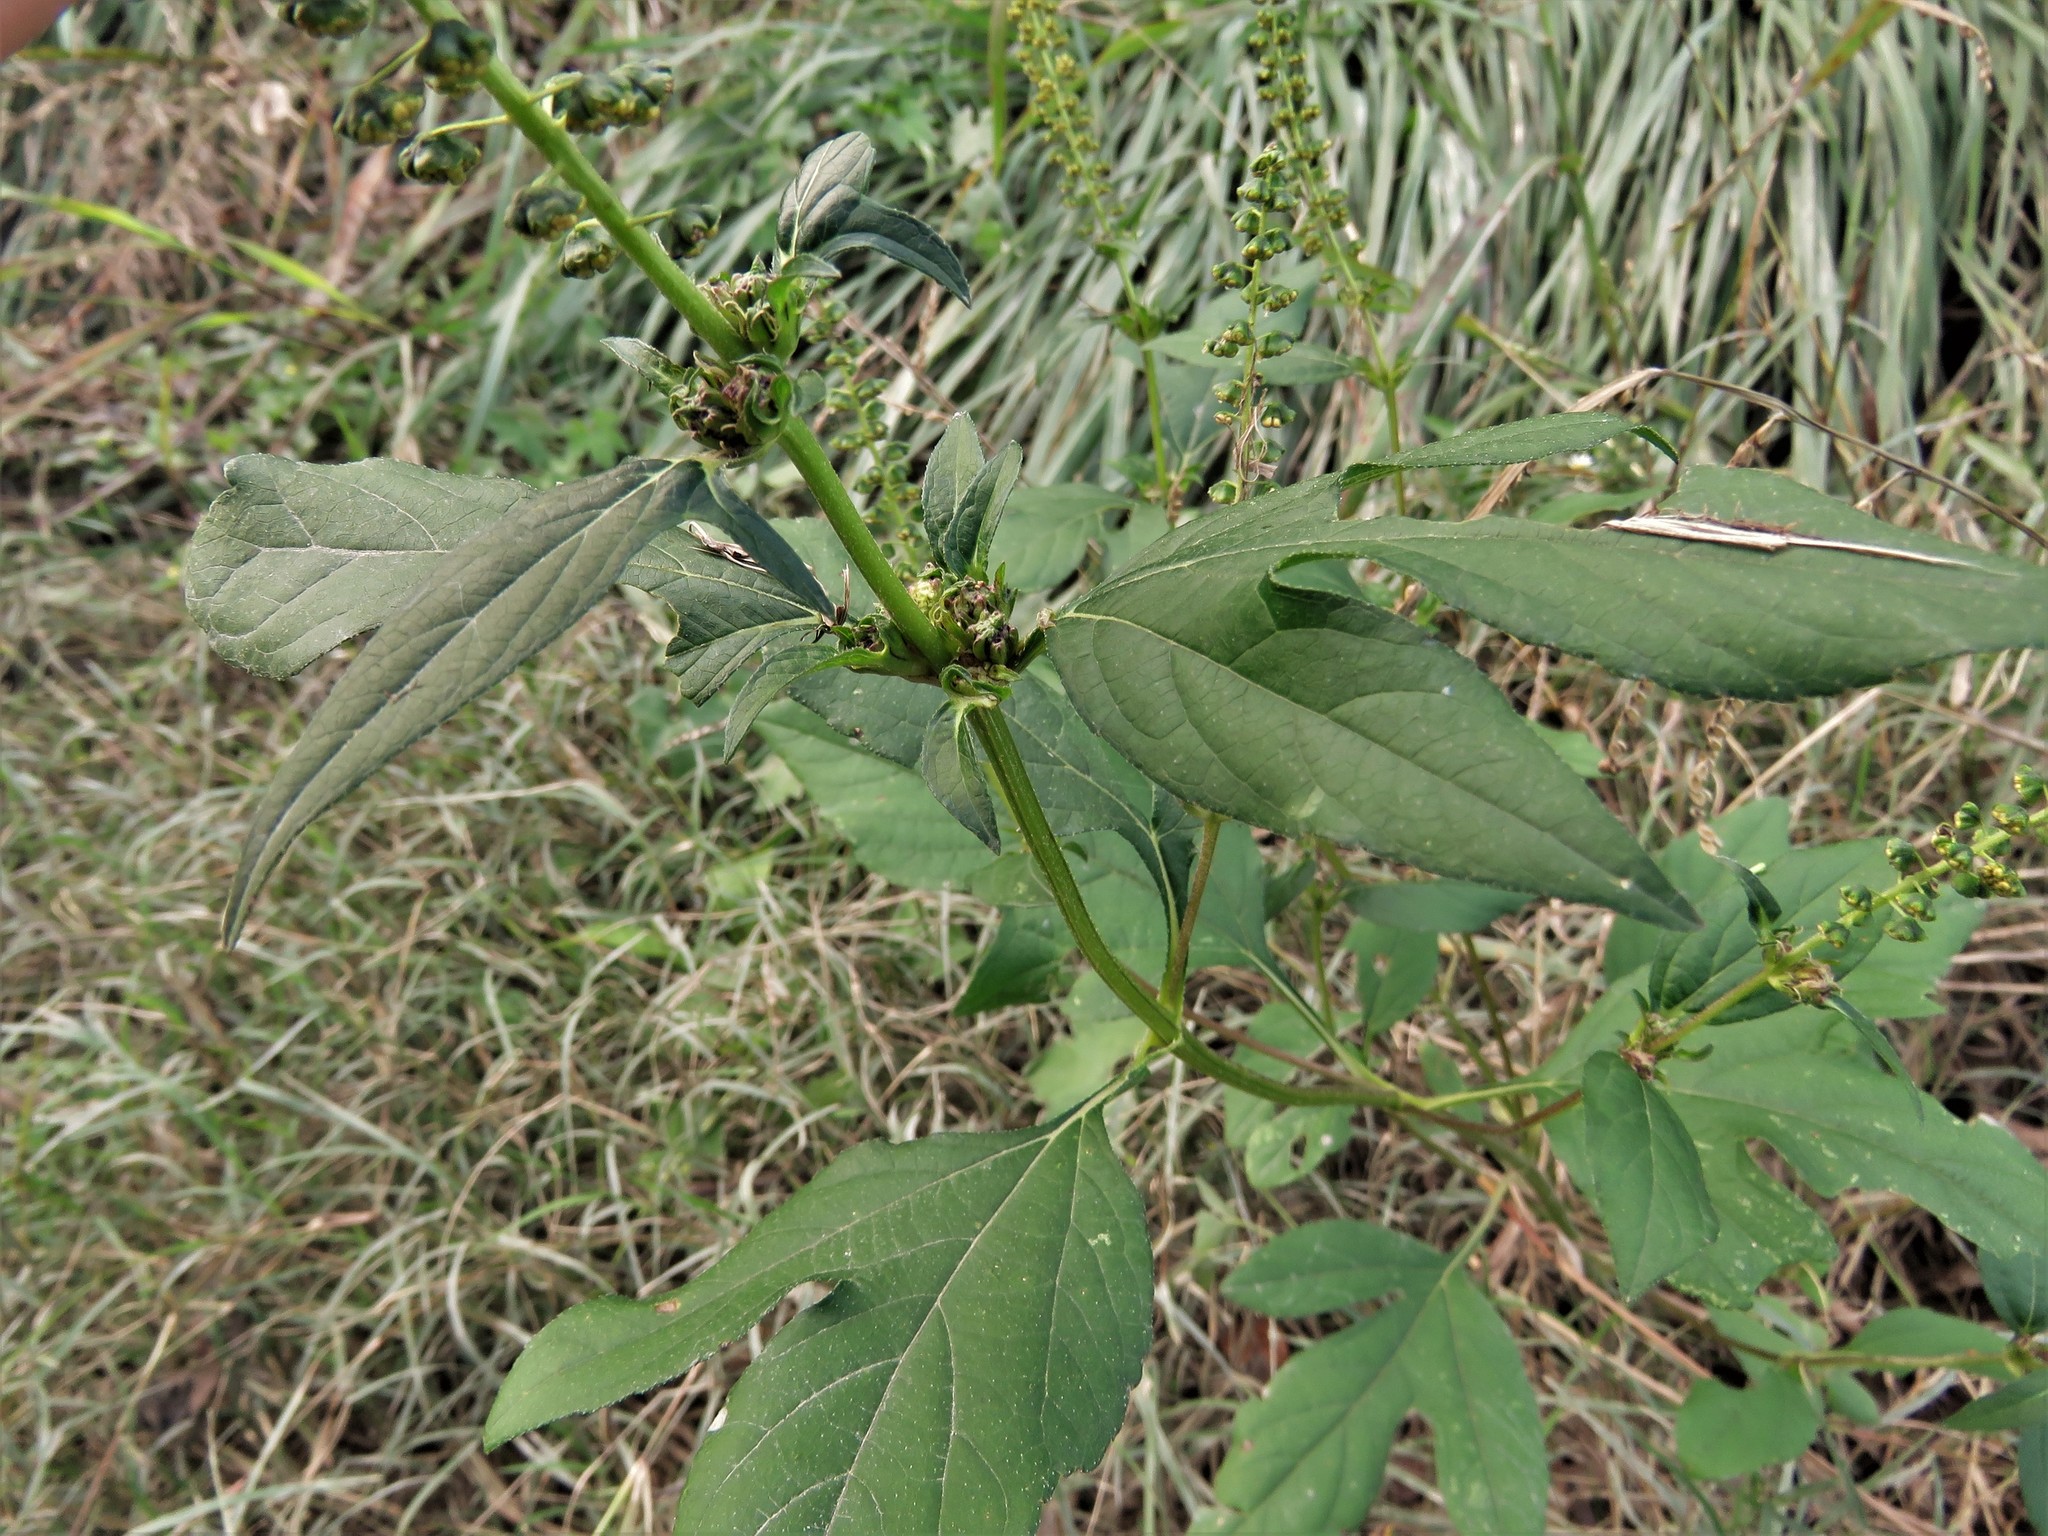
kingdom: Plantae
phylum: Tracheophyta
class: Magnoliopsida
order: Asterales
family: Asteraceae
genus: Ambrosia
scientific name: Ambrosia trifida
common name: Giant ragweed
